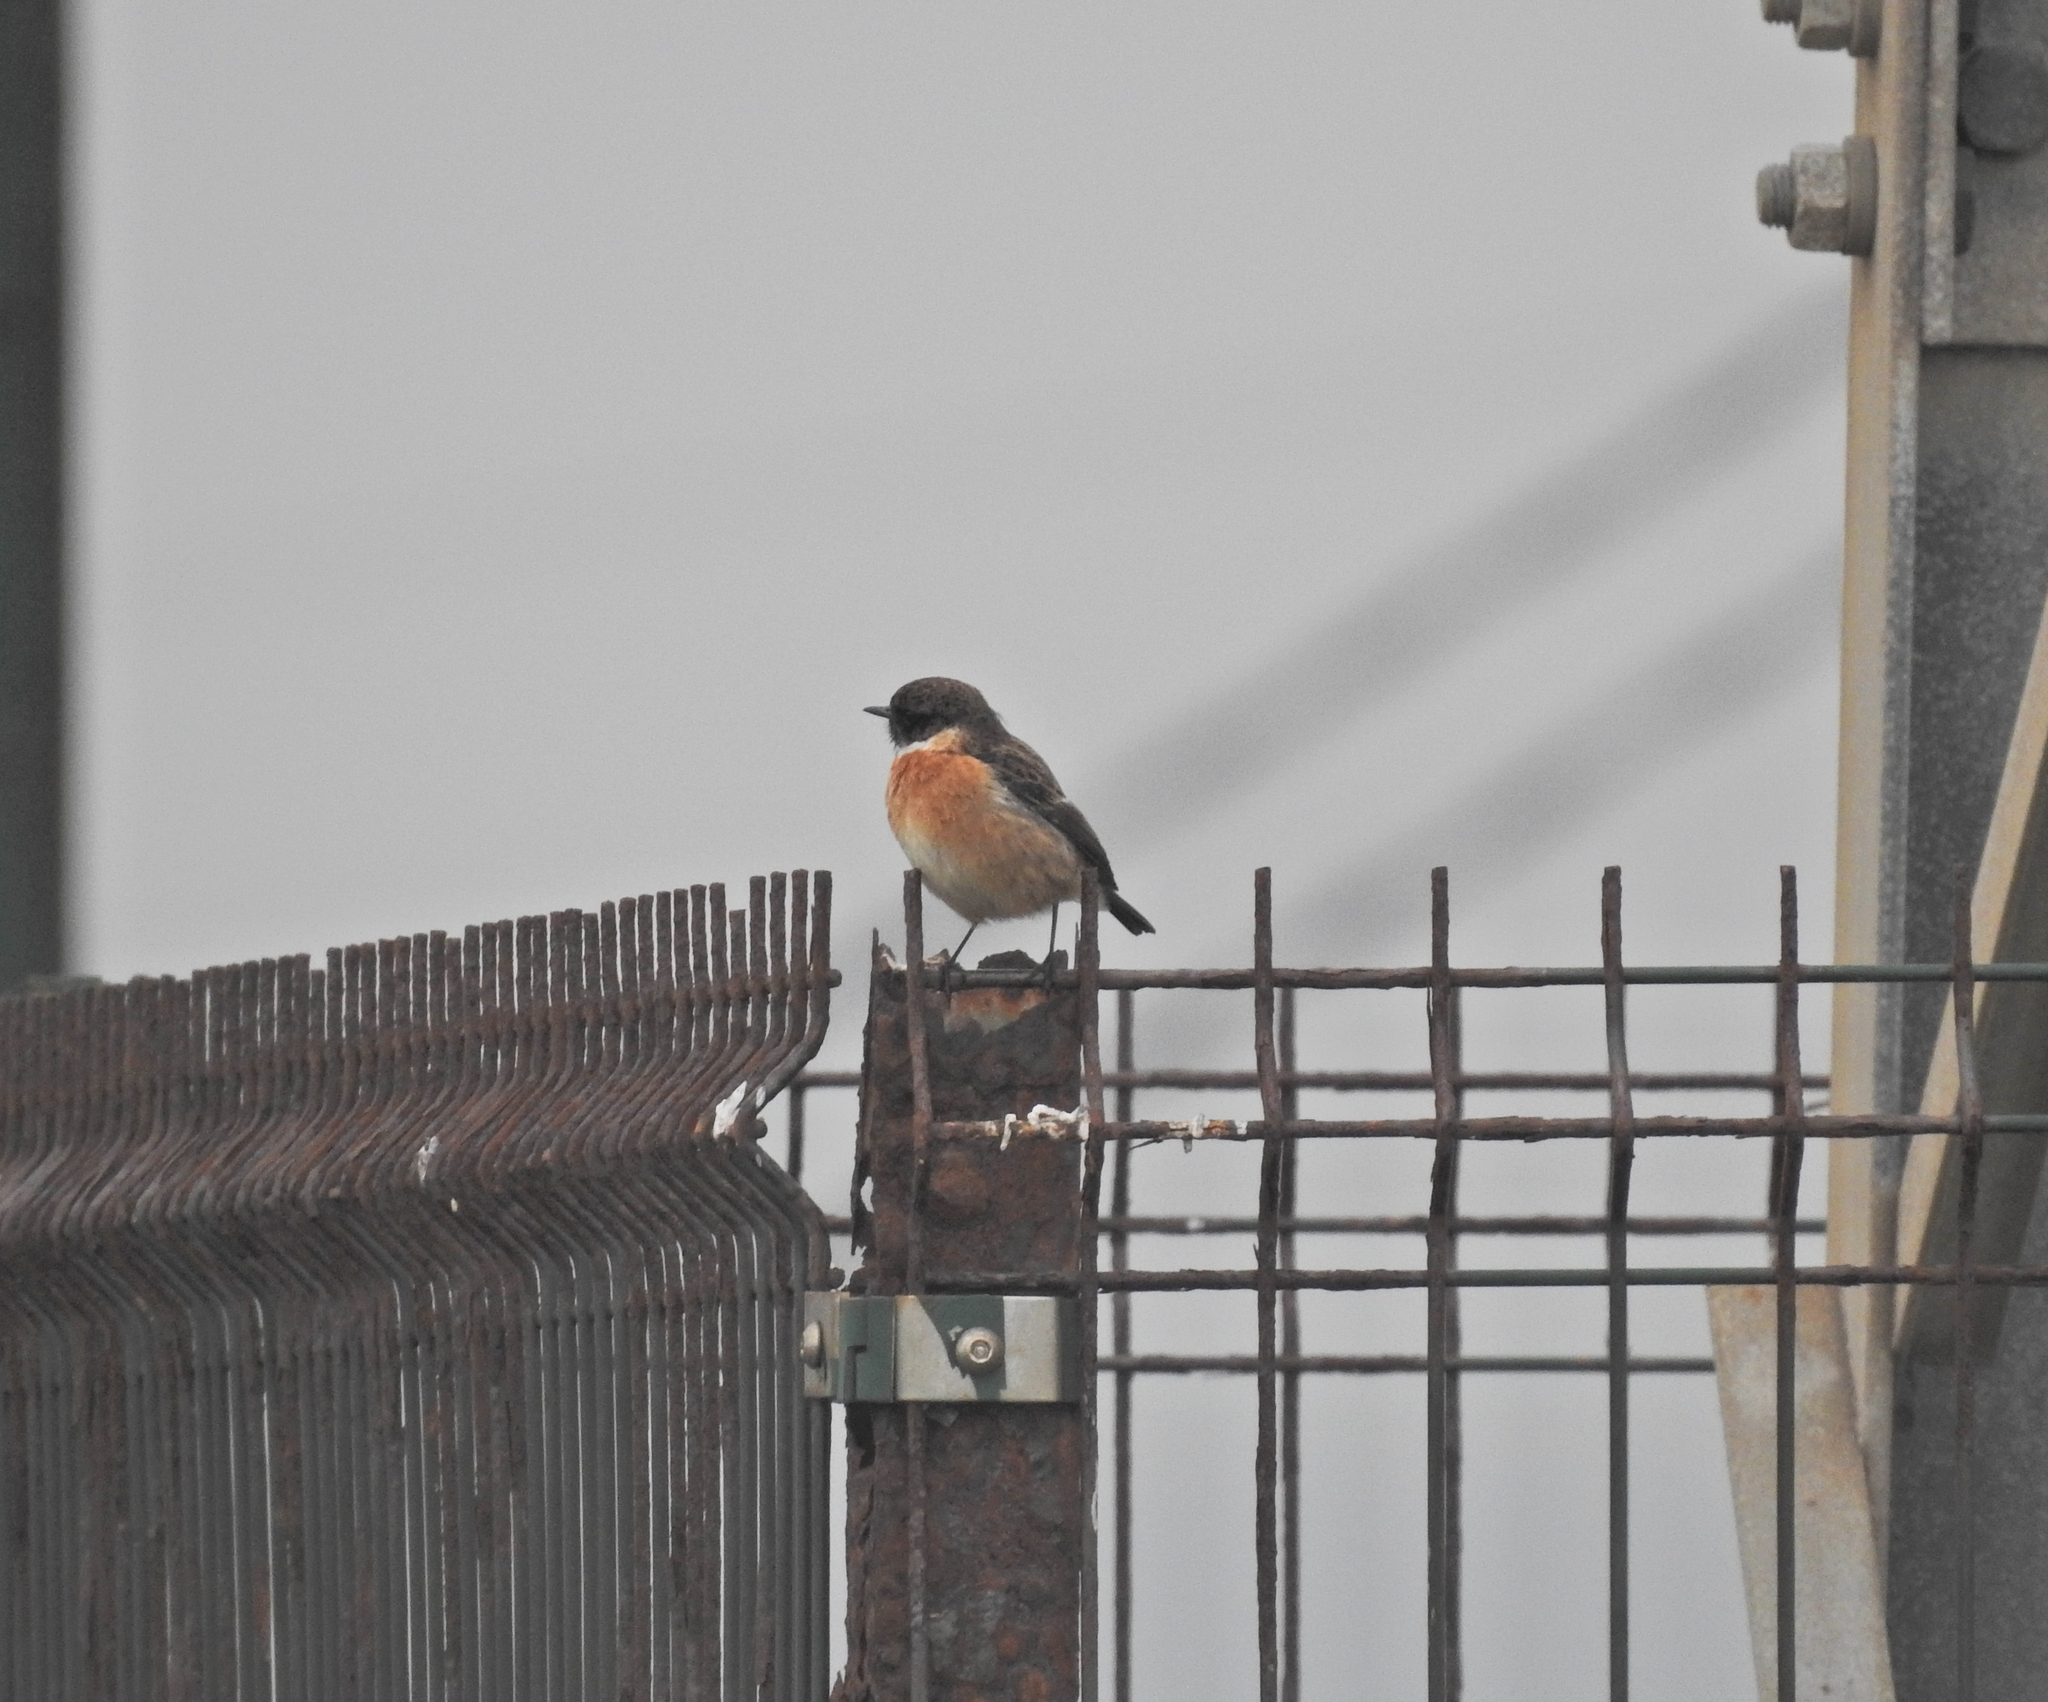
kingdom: Animalia
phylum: Chordata
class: Aves
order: Passeriformes
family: Muscicapidae
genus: Saxicola
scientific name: Saxicola rubicola
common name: European stonechat
